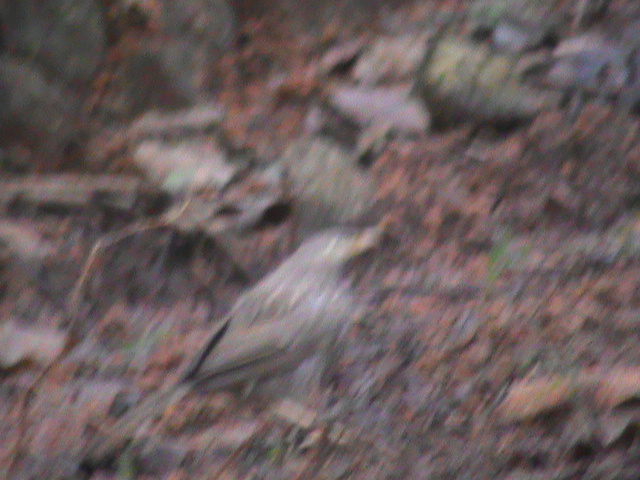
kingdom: Animalia
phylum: Chordata
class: Aves
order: Passeriformes
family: Leiothrichidae
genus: Turdoides
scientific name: Turdoides affinis
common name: Yellow-billed babbler
